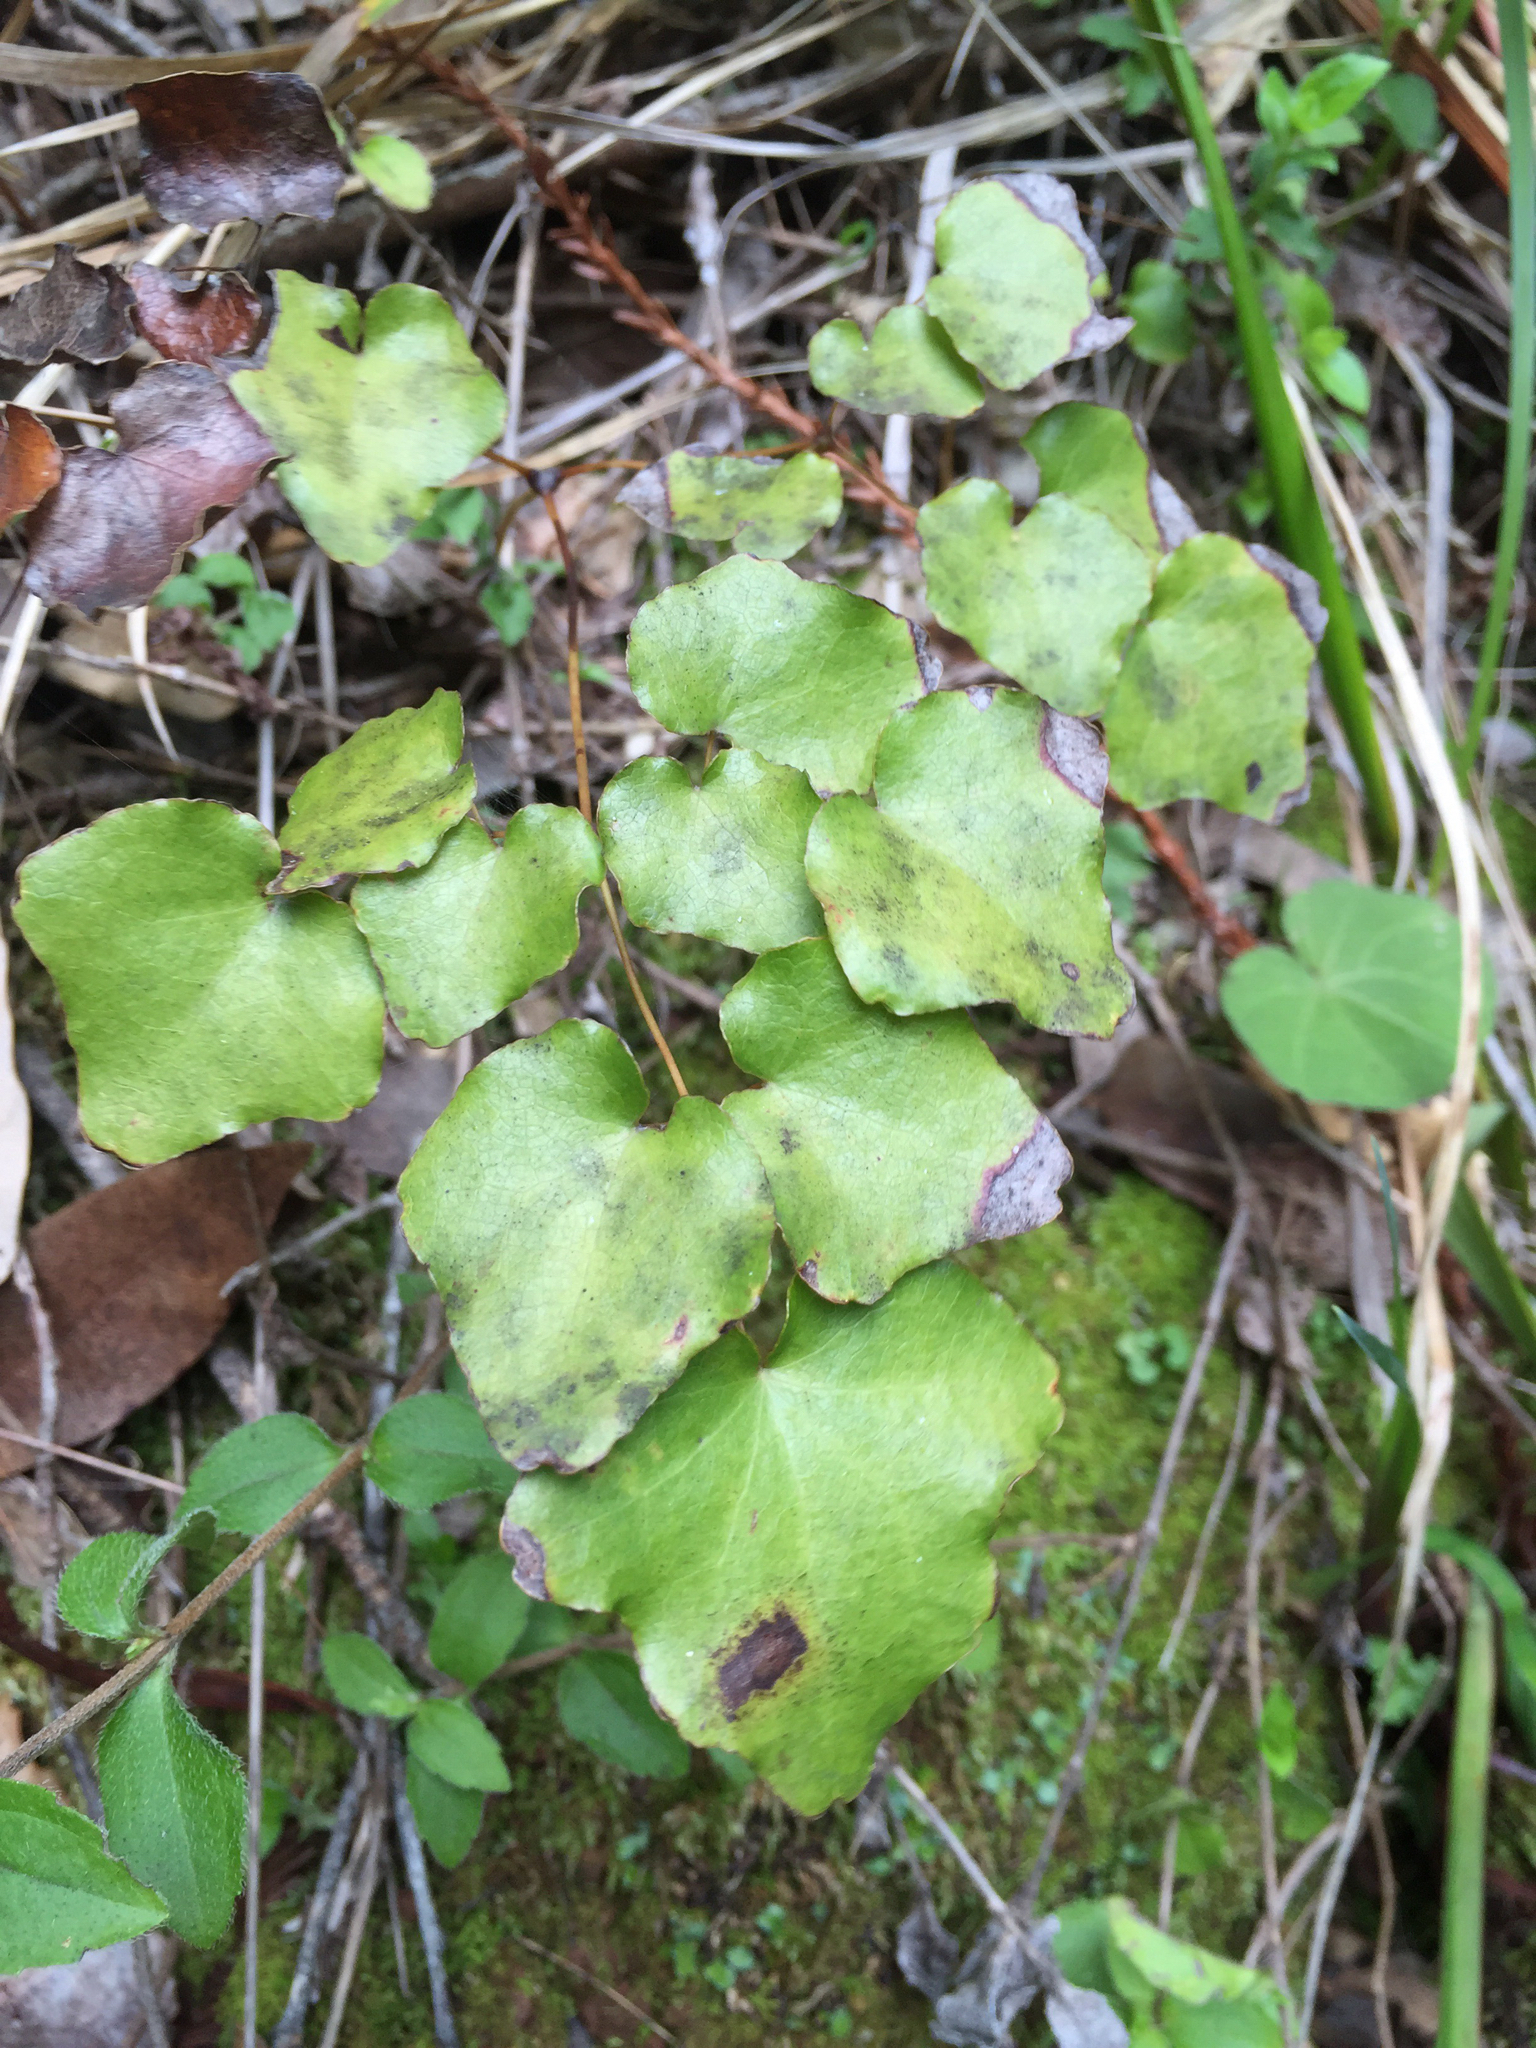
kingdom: Plantae
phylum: Tracheophyta
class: Magnoliopsida
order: Ranunculales
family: Berberidaceae
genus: Vancouveria
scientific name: Vancouveria planipetala
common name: Redwood-ivy
